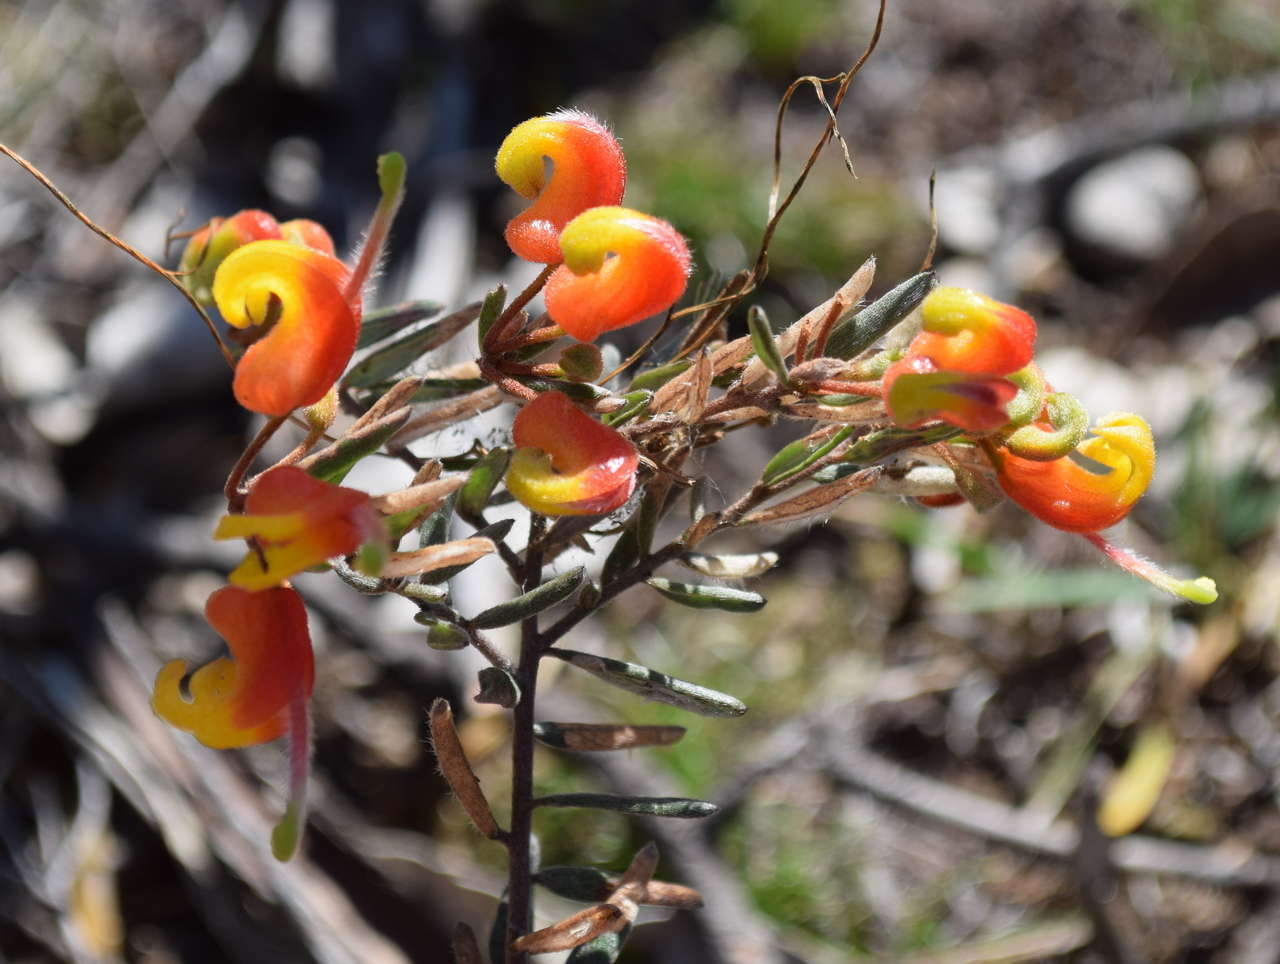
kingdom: Plantae
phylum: Tracheophyta
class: Magnoliopsida
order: Proteales
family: Proteaceae
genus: Grevillea
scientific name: Grevillea alpina
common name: Catclaws grevillea
